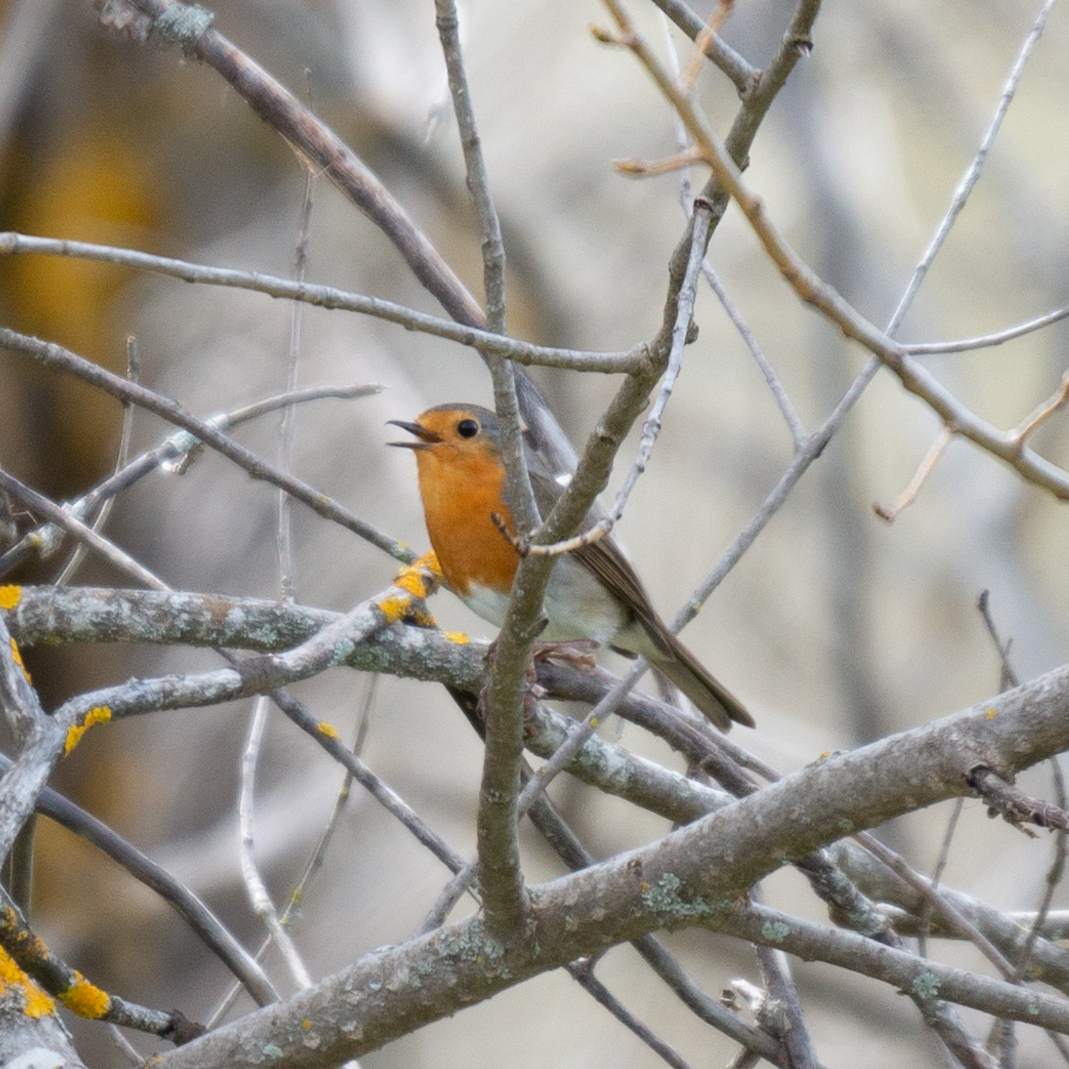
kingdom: Animalia
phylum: Chordata
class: Aves
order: Passeriformes
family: Muscicapidae
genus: Erithacus
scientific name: Erithacus rubecula
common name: European robin
